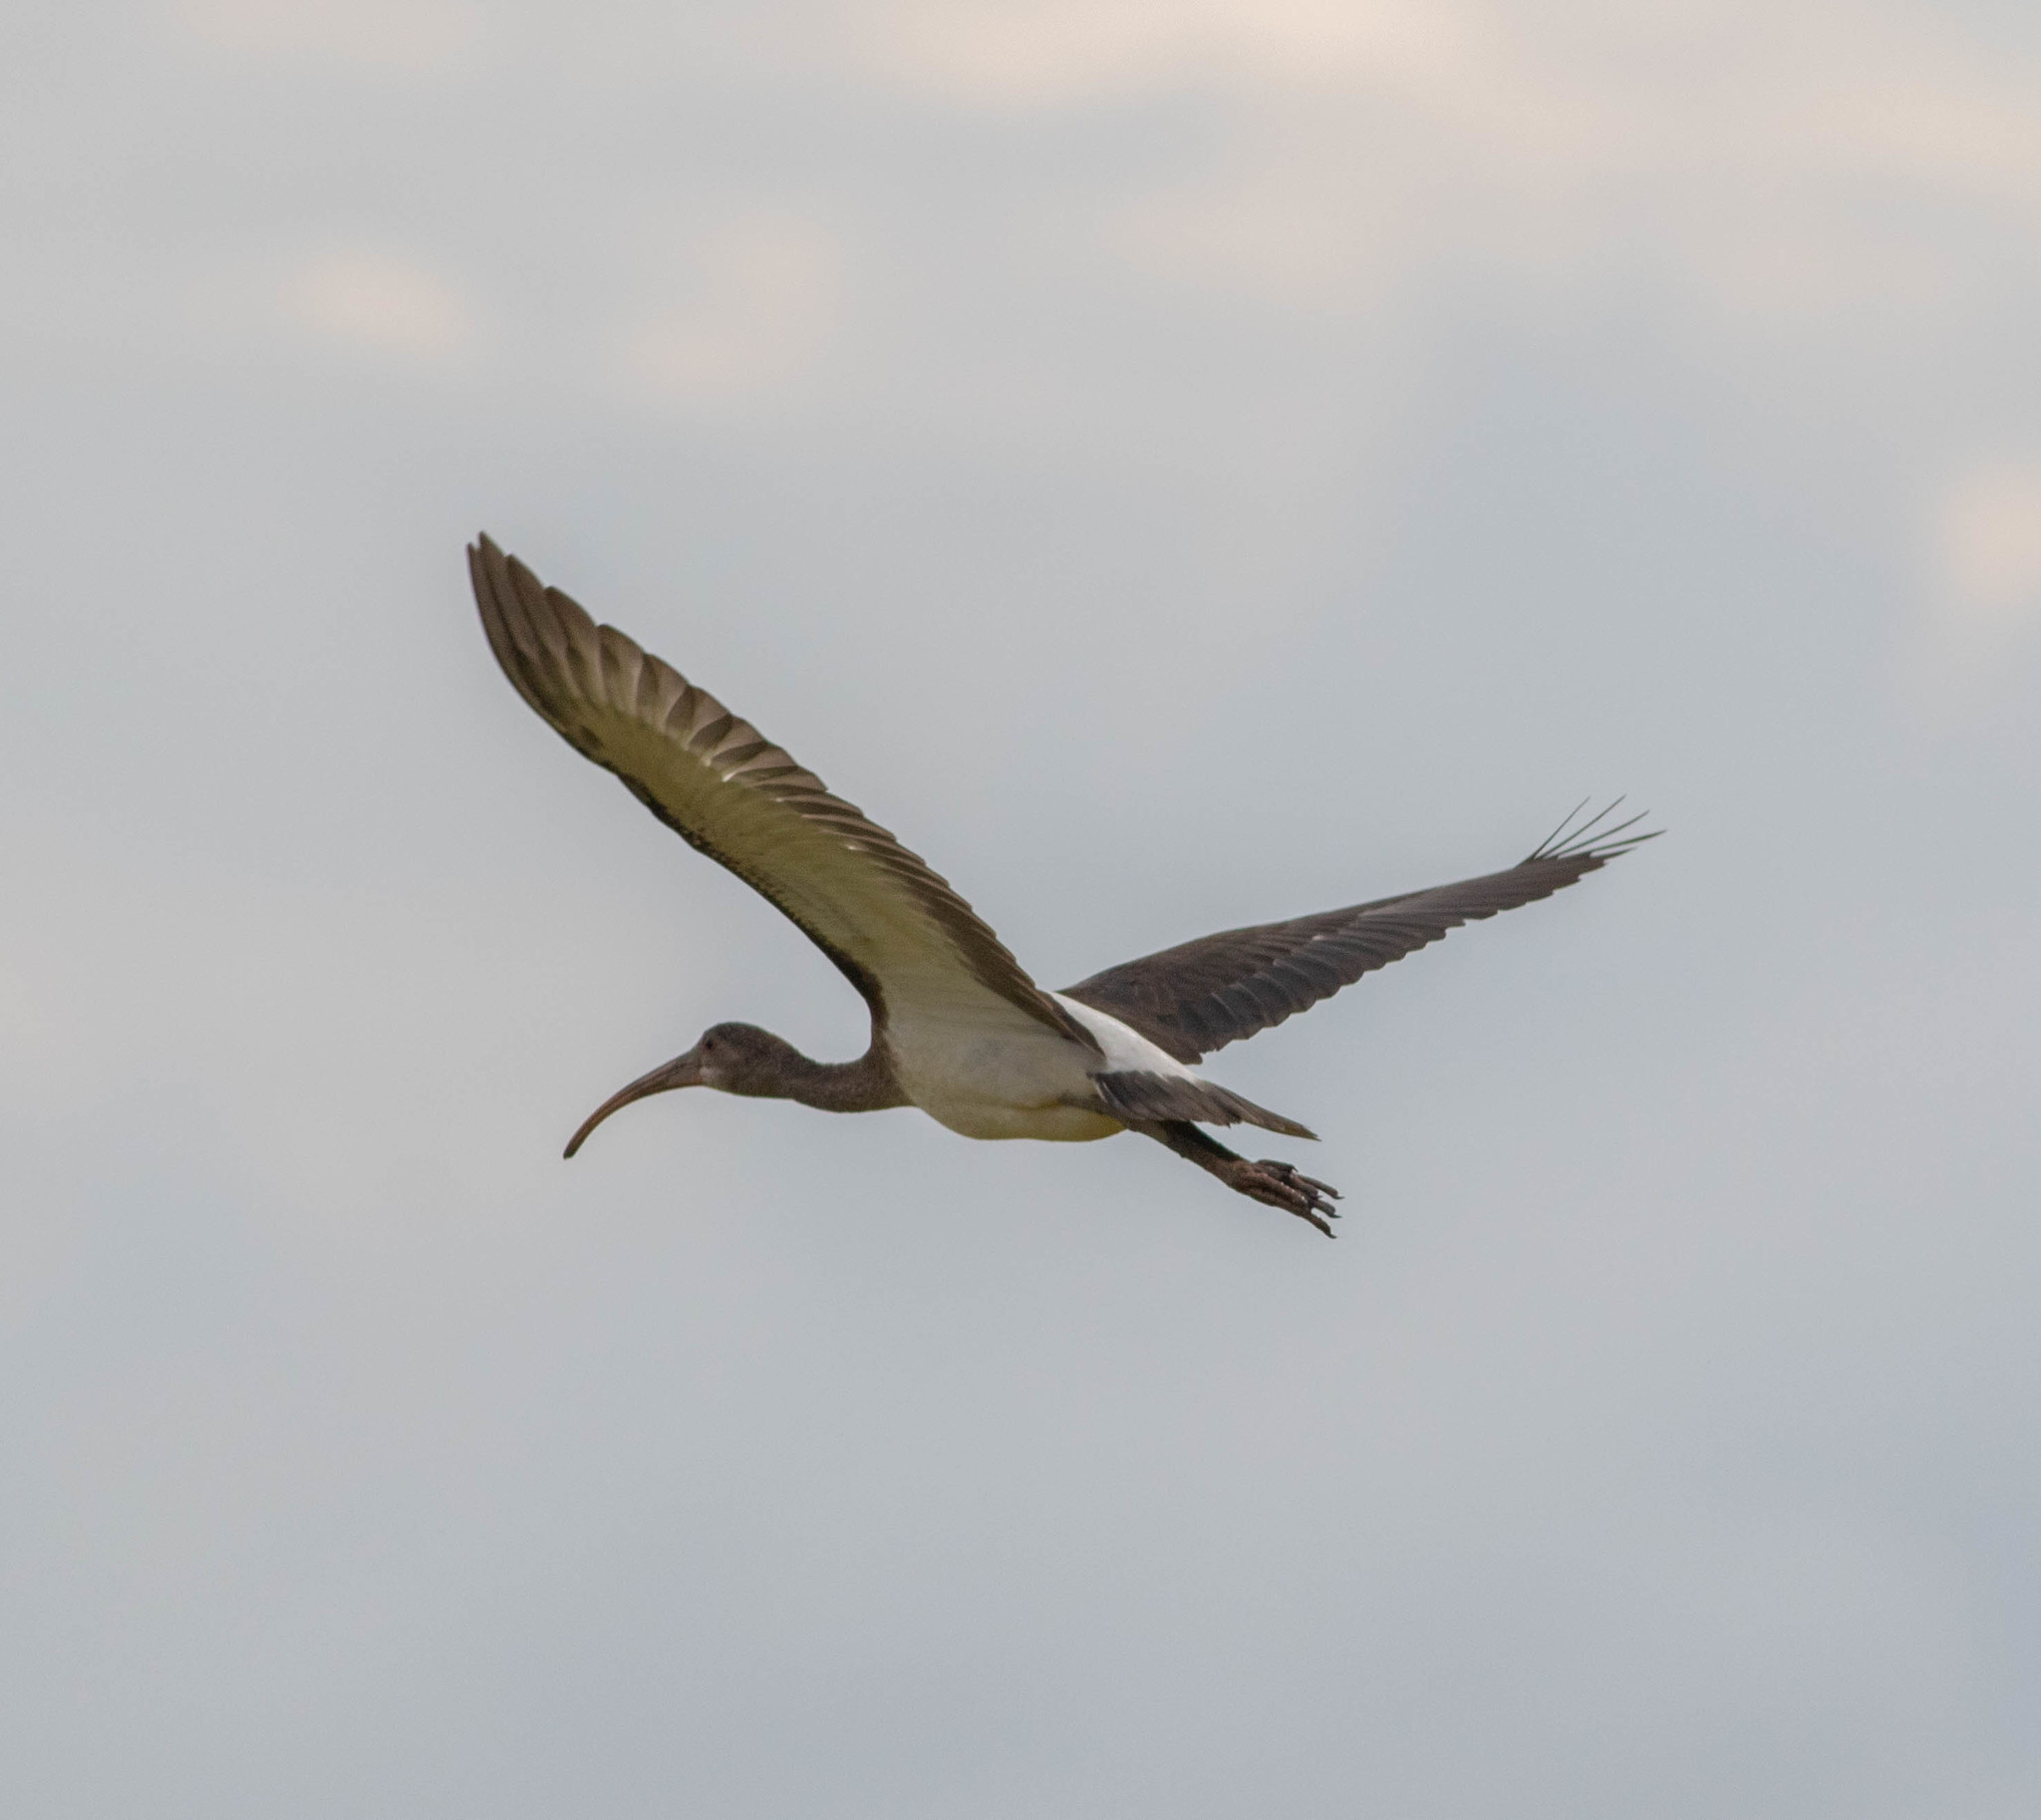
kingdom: Animalia
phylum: Chordata
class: Aves
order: Pelecaniformes
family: Threskiornithidae
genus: Eudocimus
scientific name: Eudocimus albus
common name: White ibis
